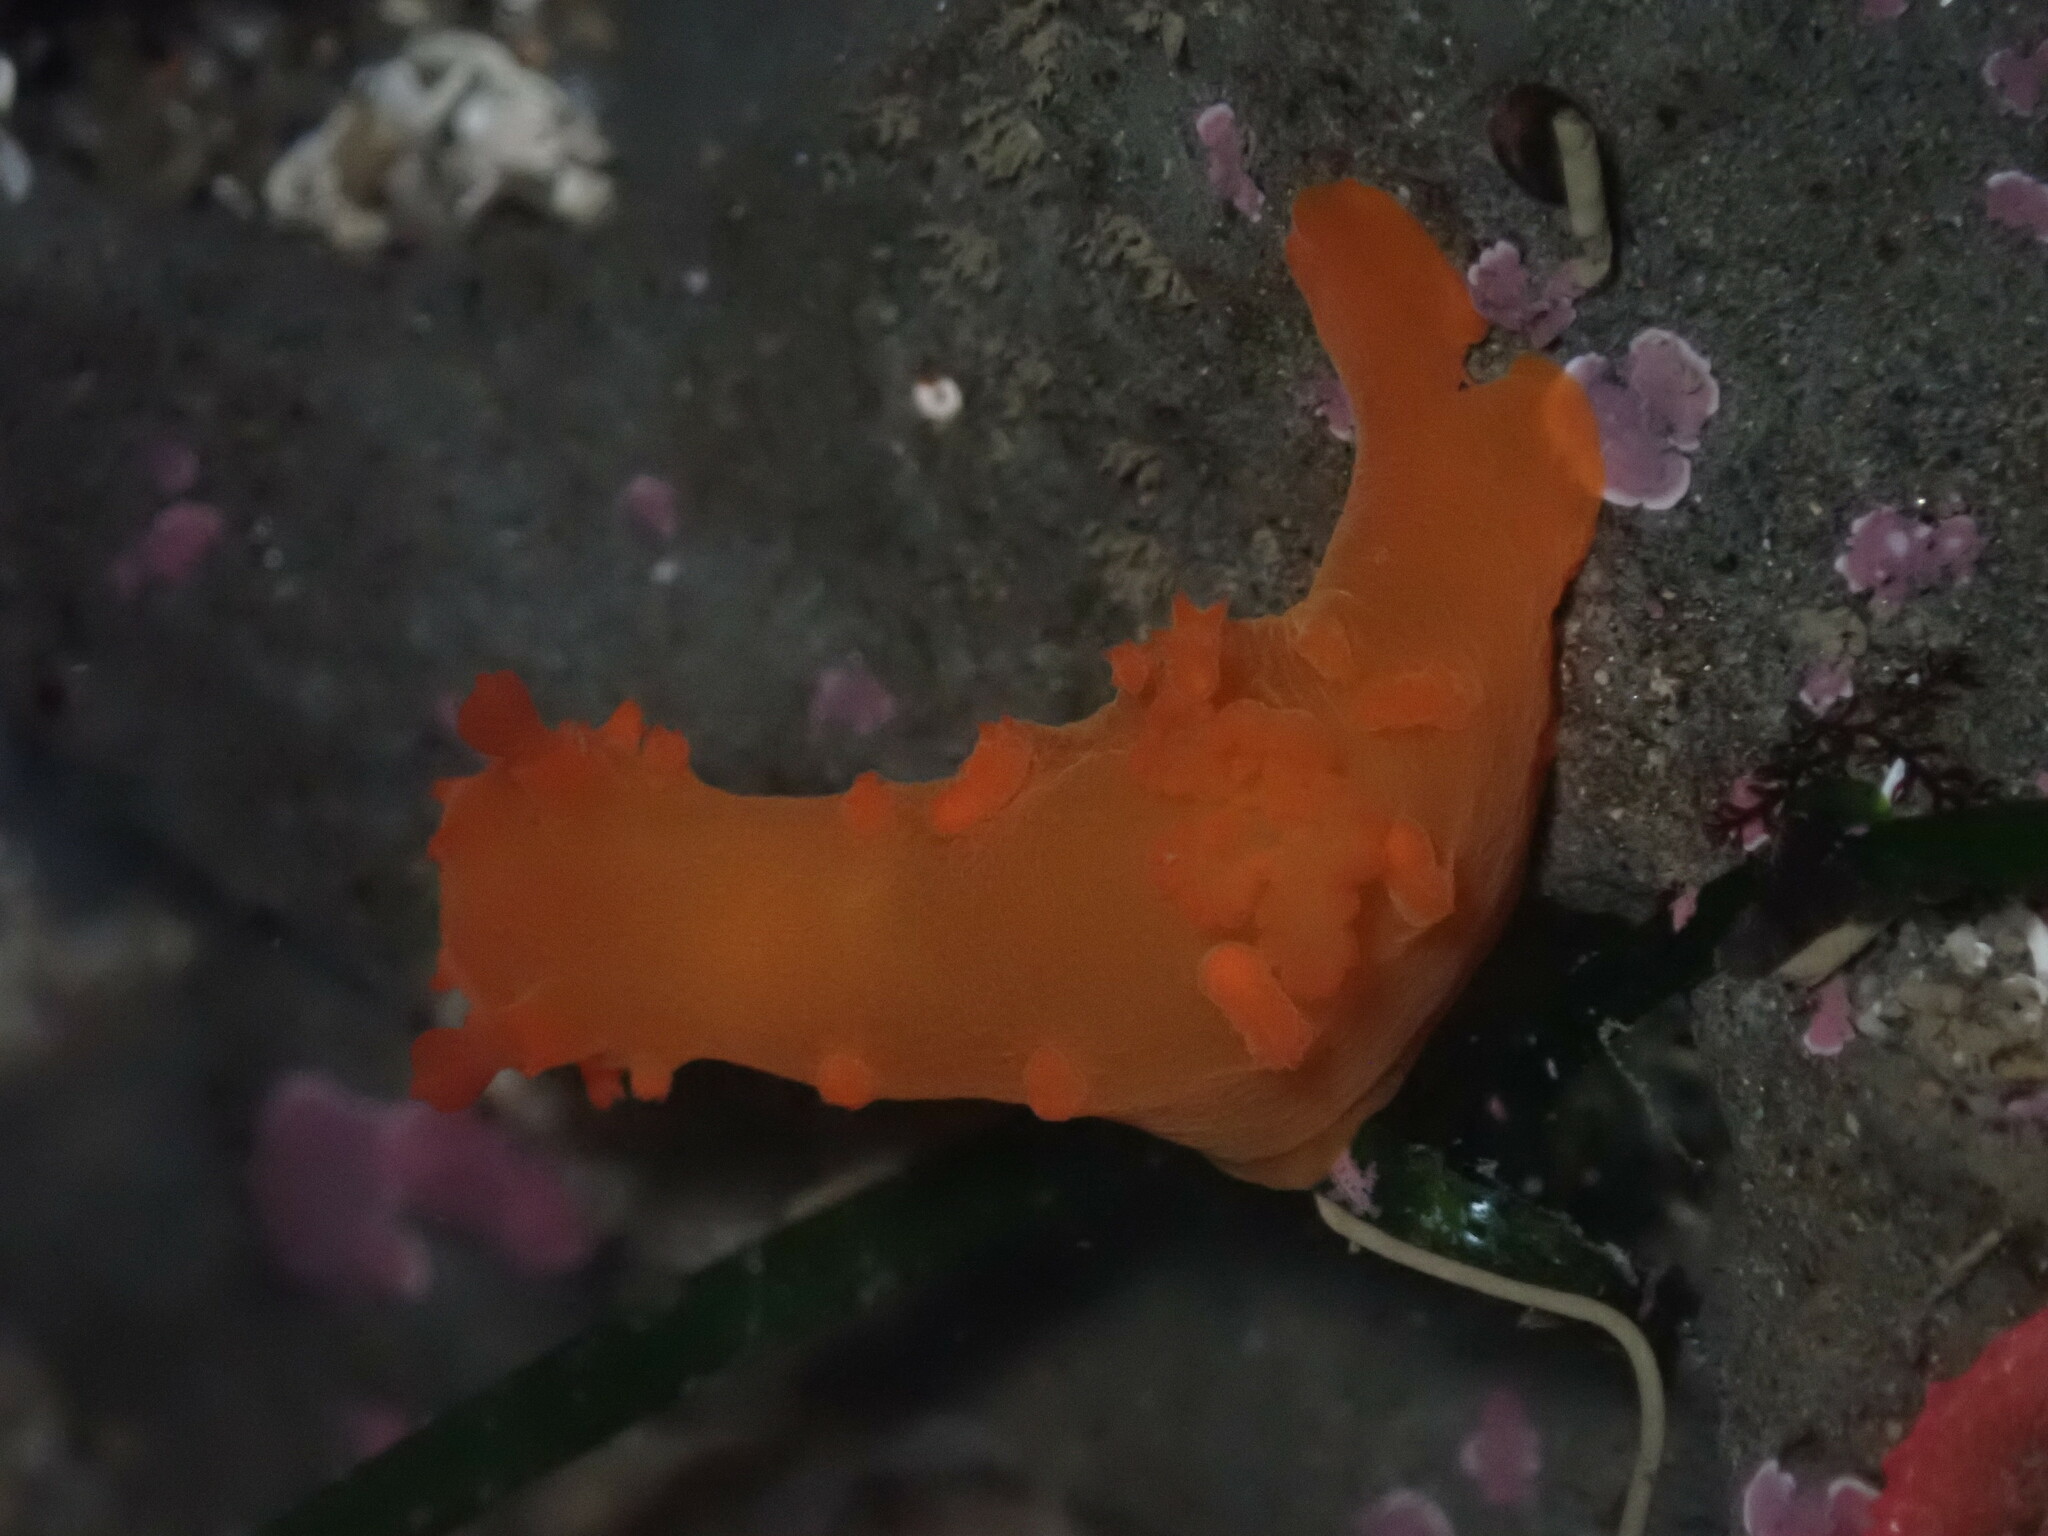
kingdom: Animalia
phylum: Mollusca
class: Gastropoda
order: Nudibranchia
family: Polyceridae
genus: Triopha
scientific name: Triopha maculata
